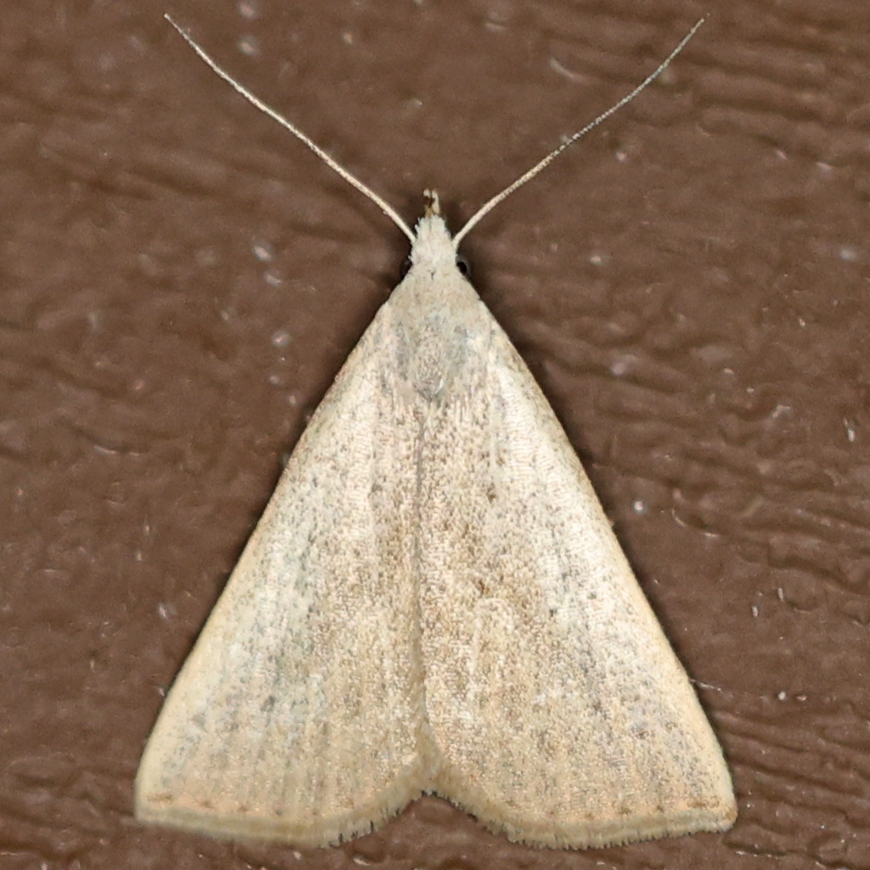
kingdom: Animalia
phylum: Arthropoda
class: Insecta
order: Lepidoptera
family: Erebidae
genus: Macrochilo
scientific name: Macrochilo louisiana
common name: Louisiana macrochilo
